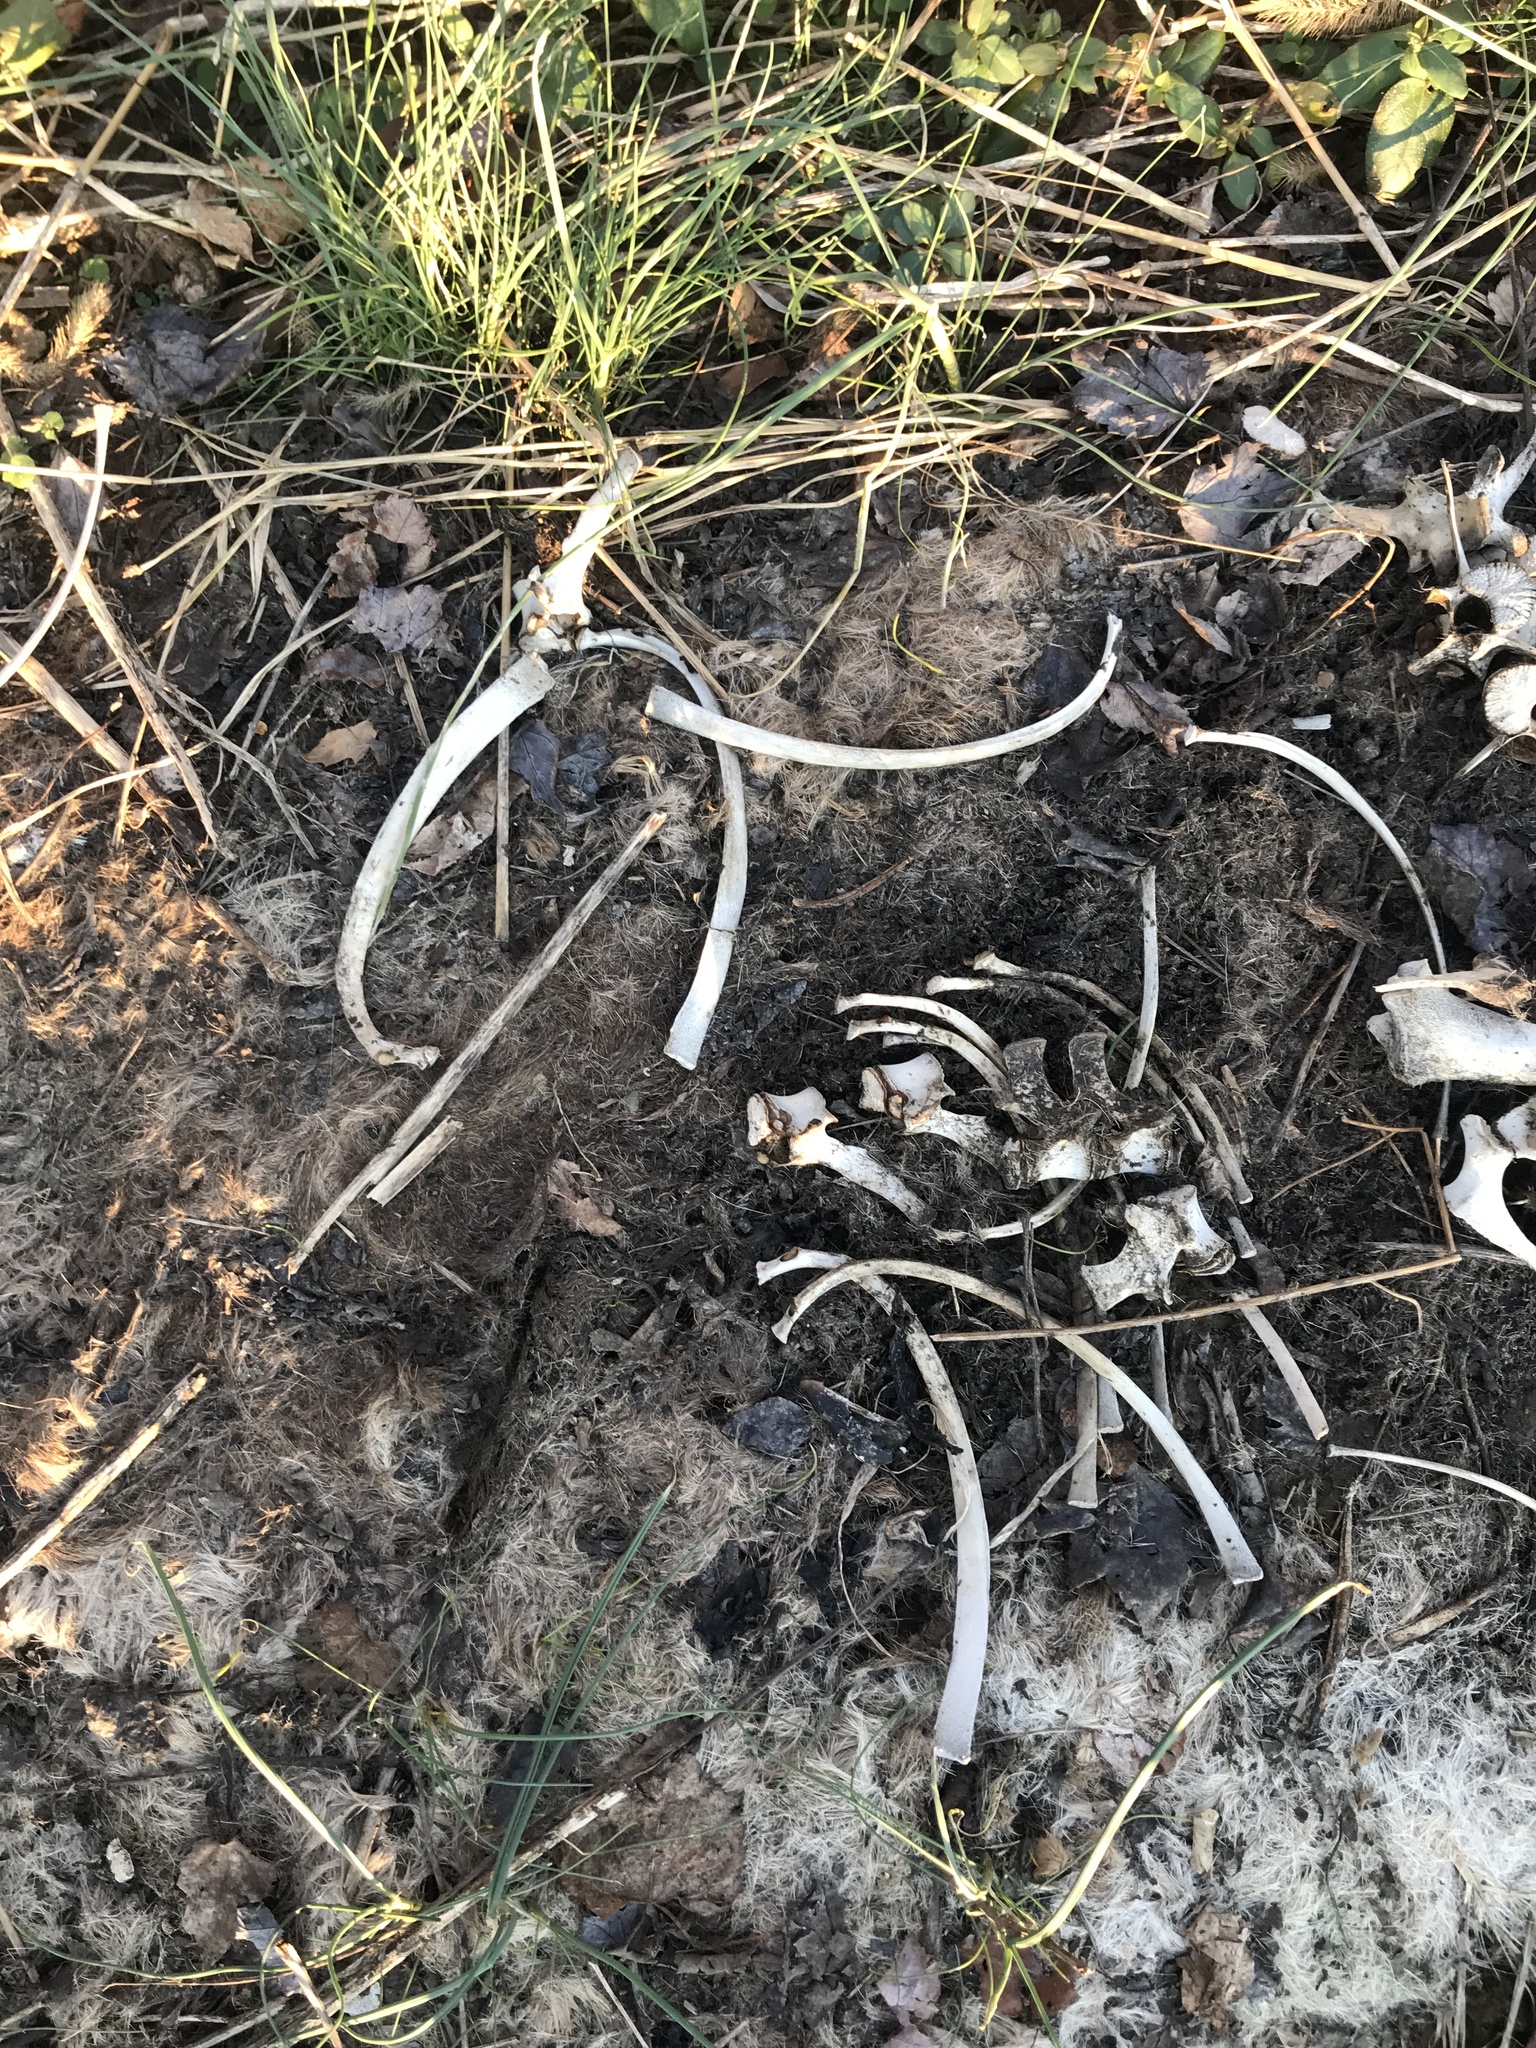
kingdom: Animalia
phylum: Chordata
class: Mammalia
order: Artiodactyla
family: Cervidae
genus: Odocoileus
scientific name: Odocoileus virginianus
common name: White-tailed deer
